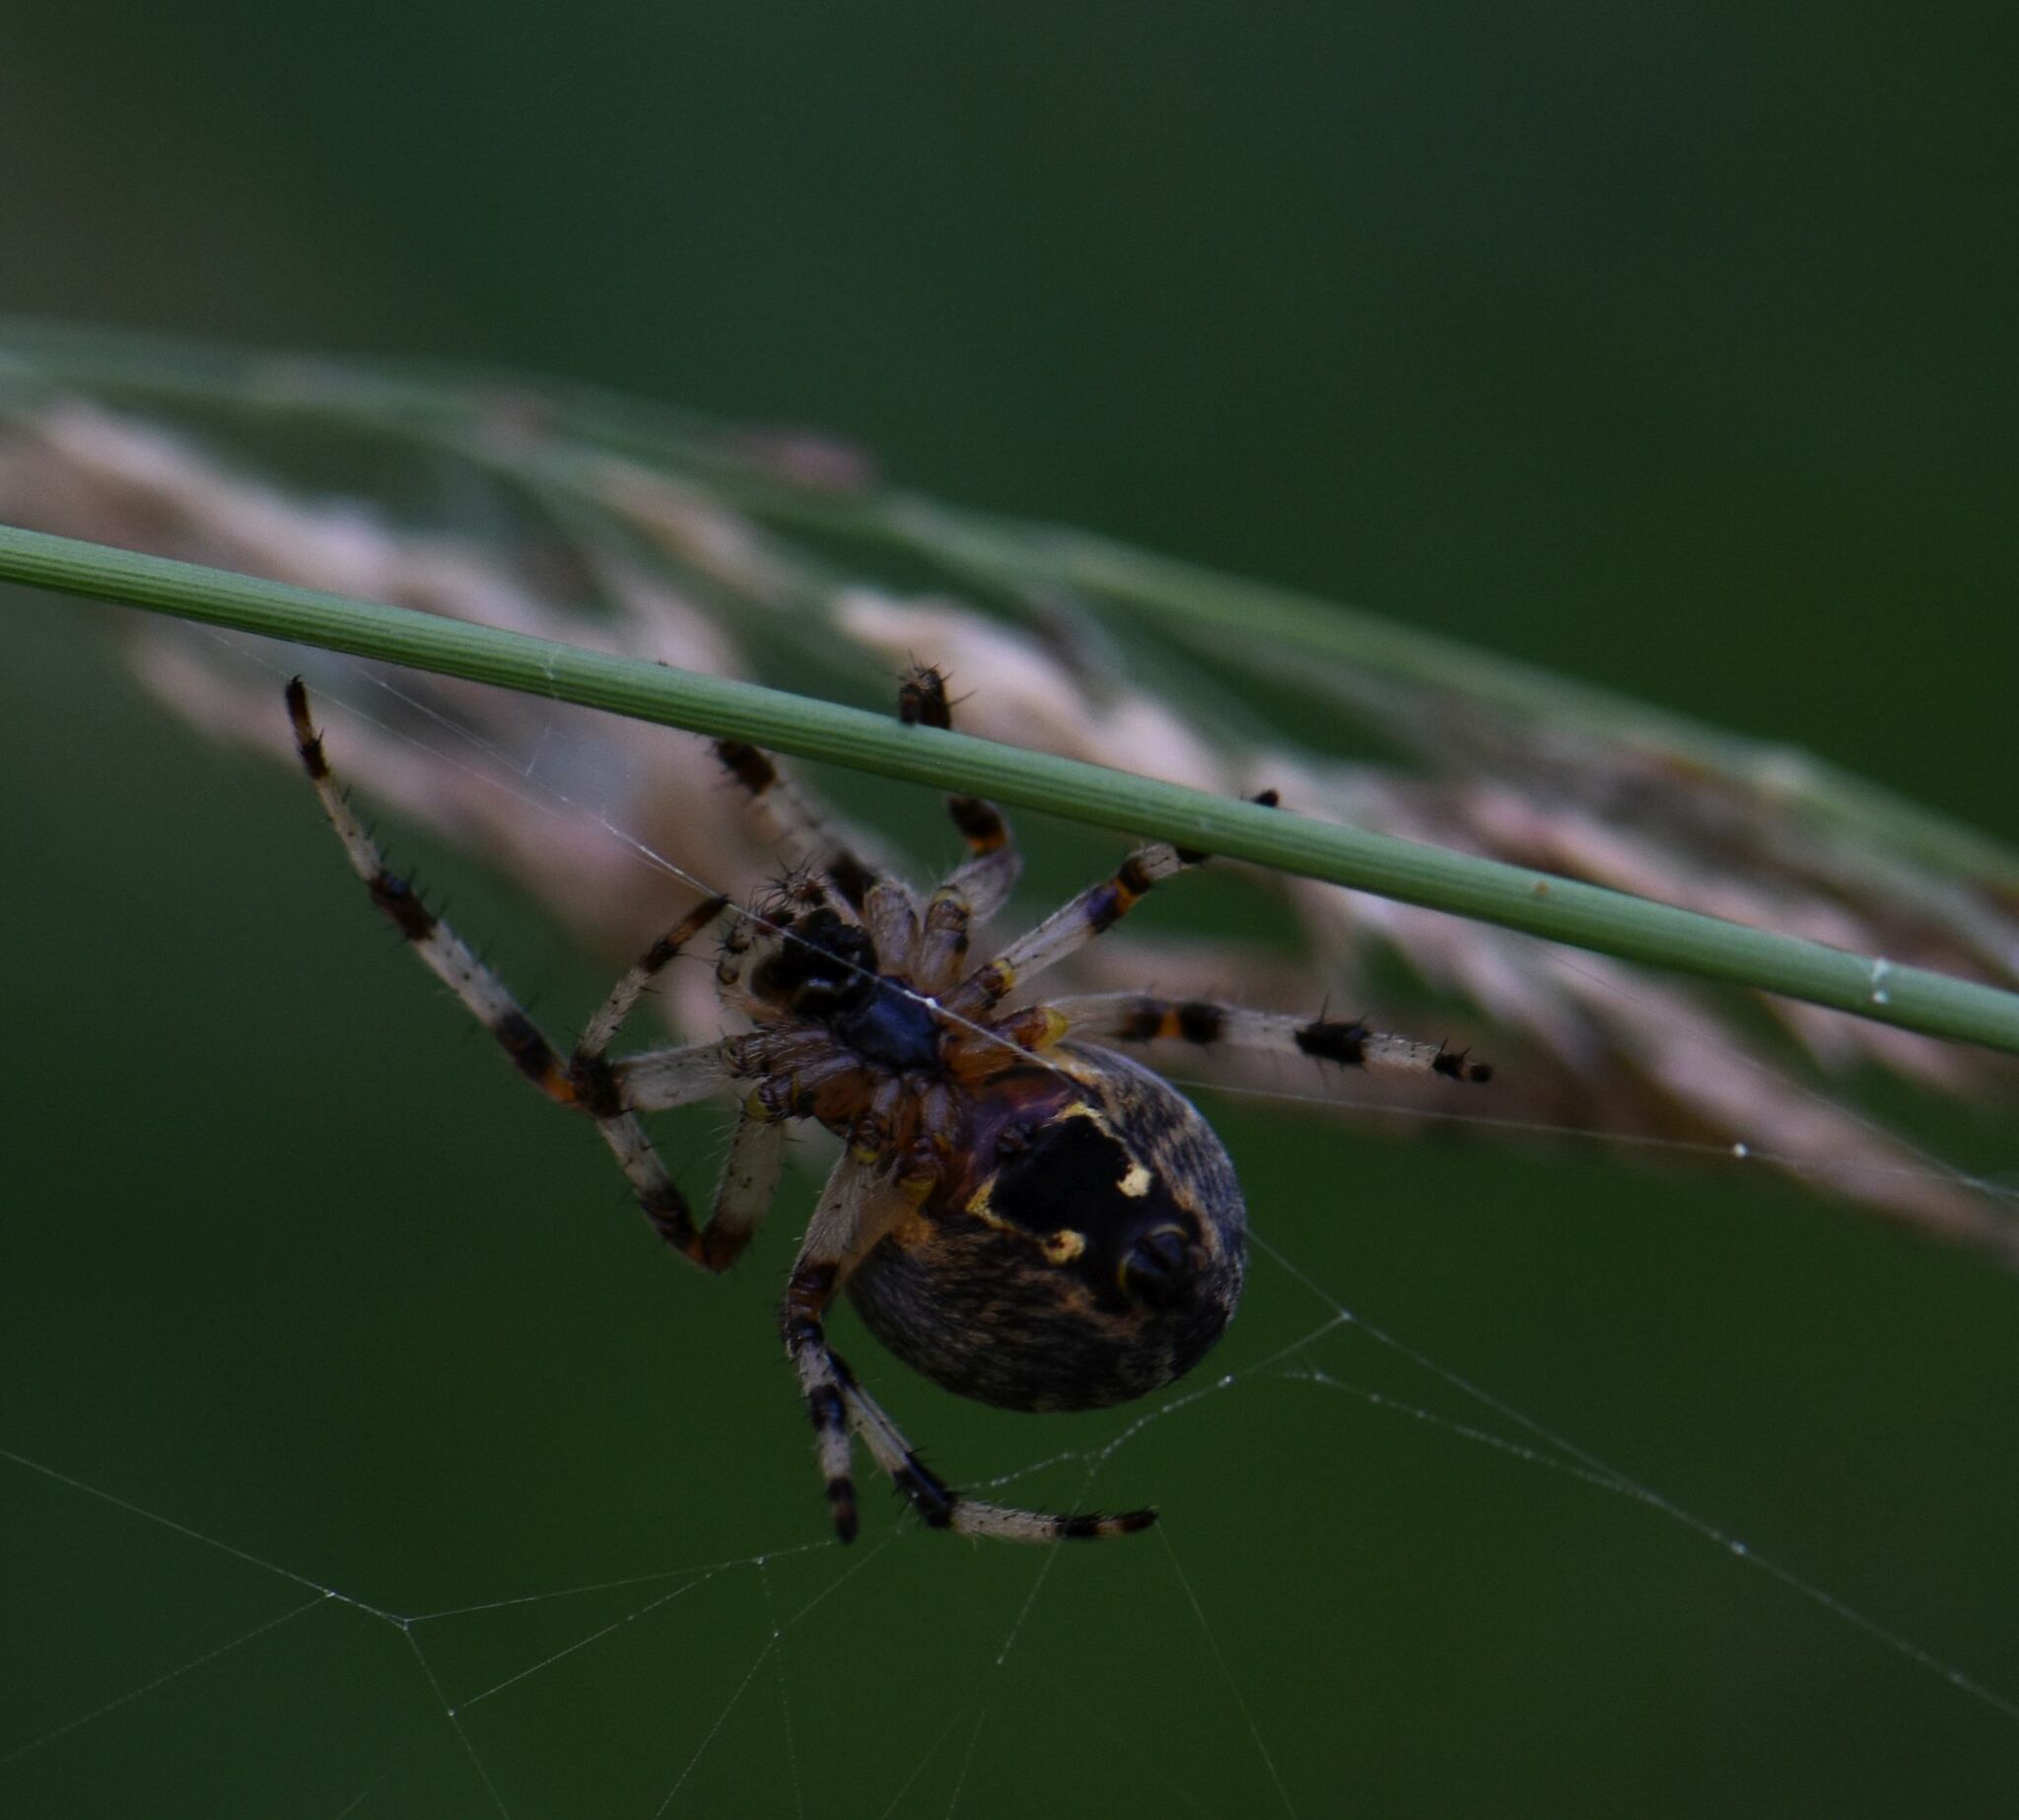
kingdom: Animalia
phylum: Arthropoda
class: Arachnida
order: Araneae
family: Araneidae
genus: Araneus
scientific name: Araneus marmoreus
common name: Marbled orbweaver
